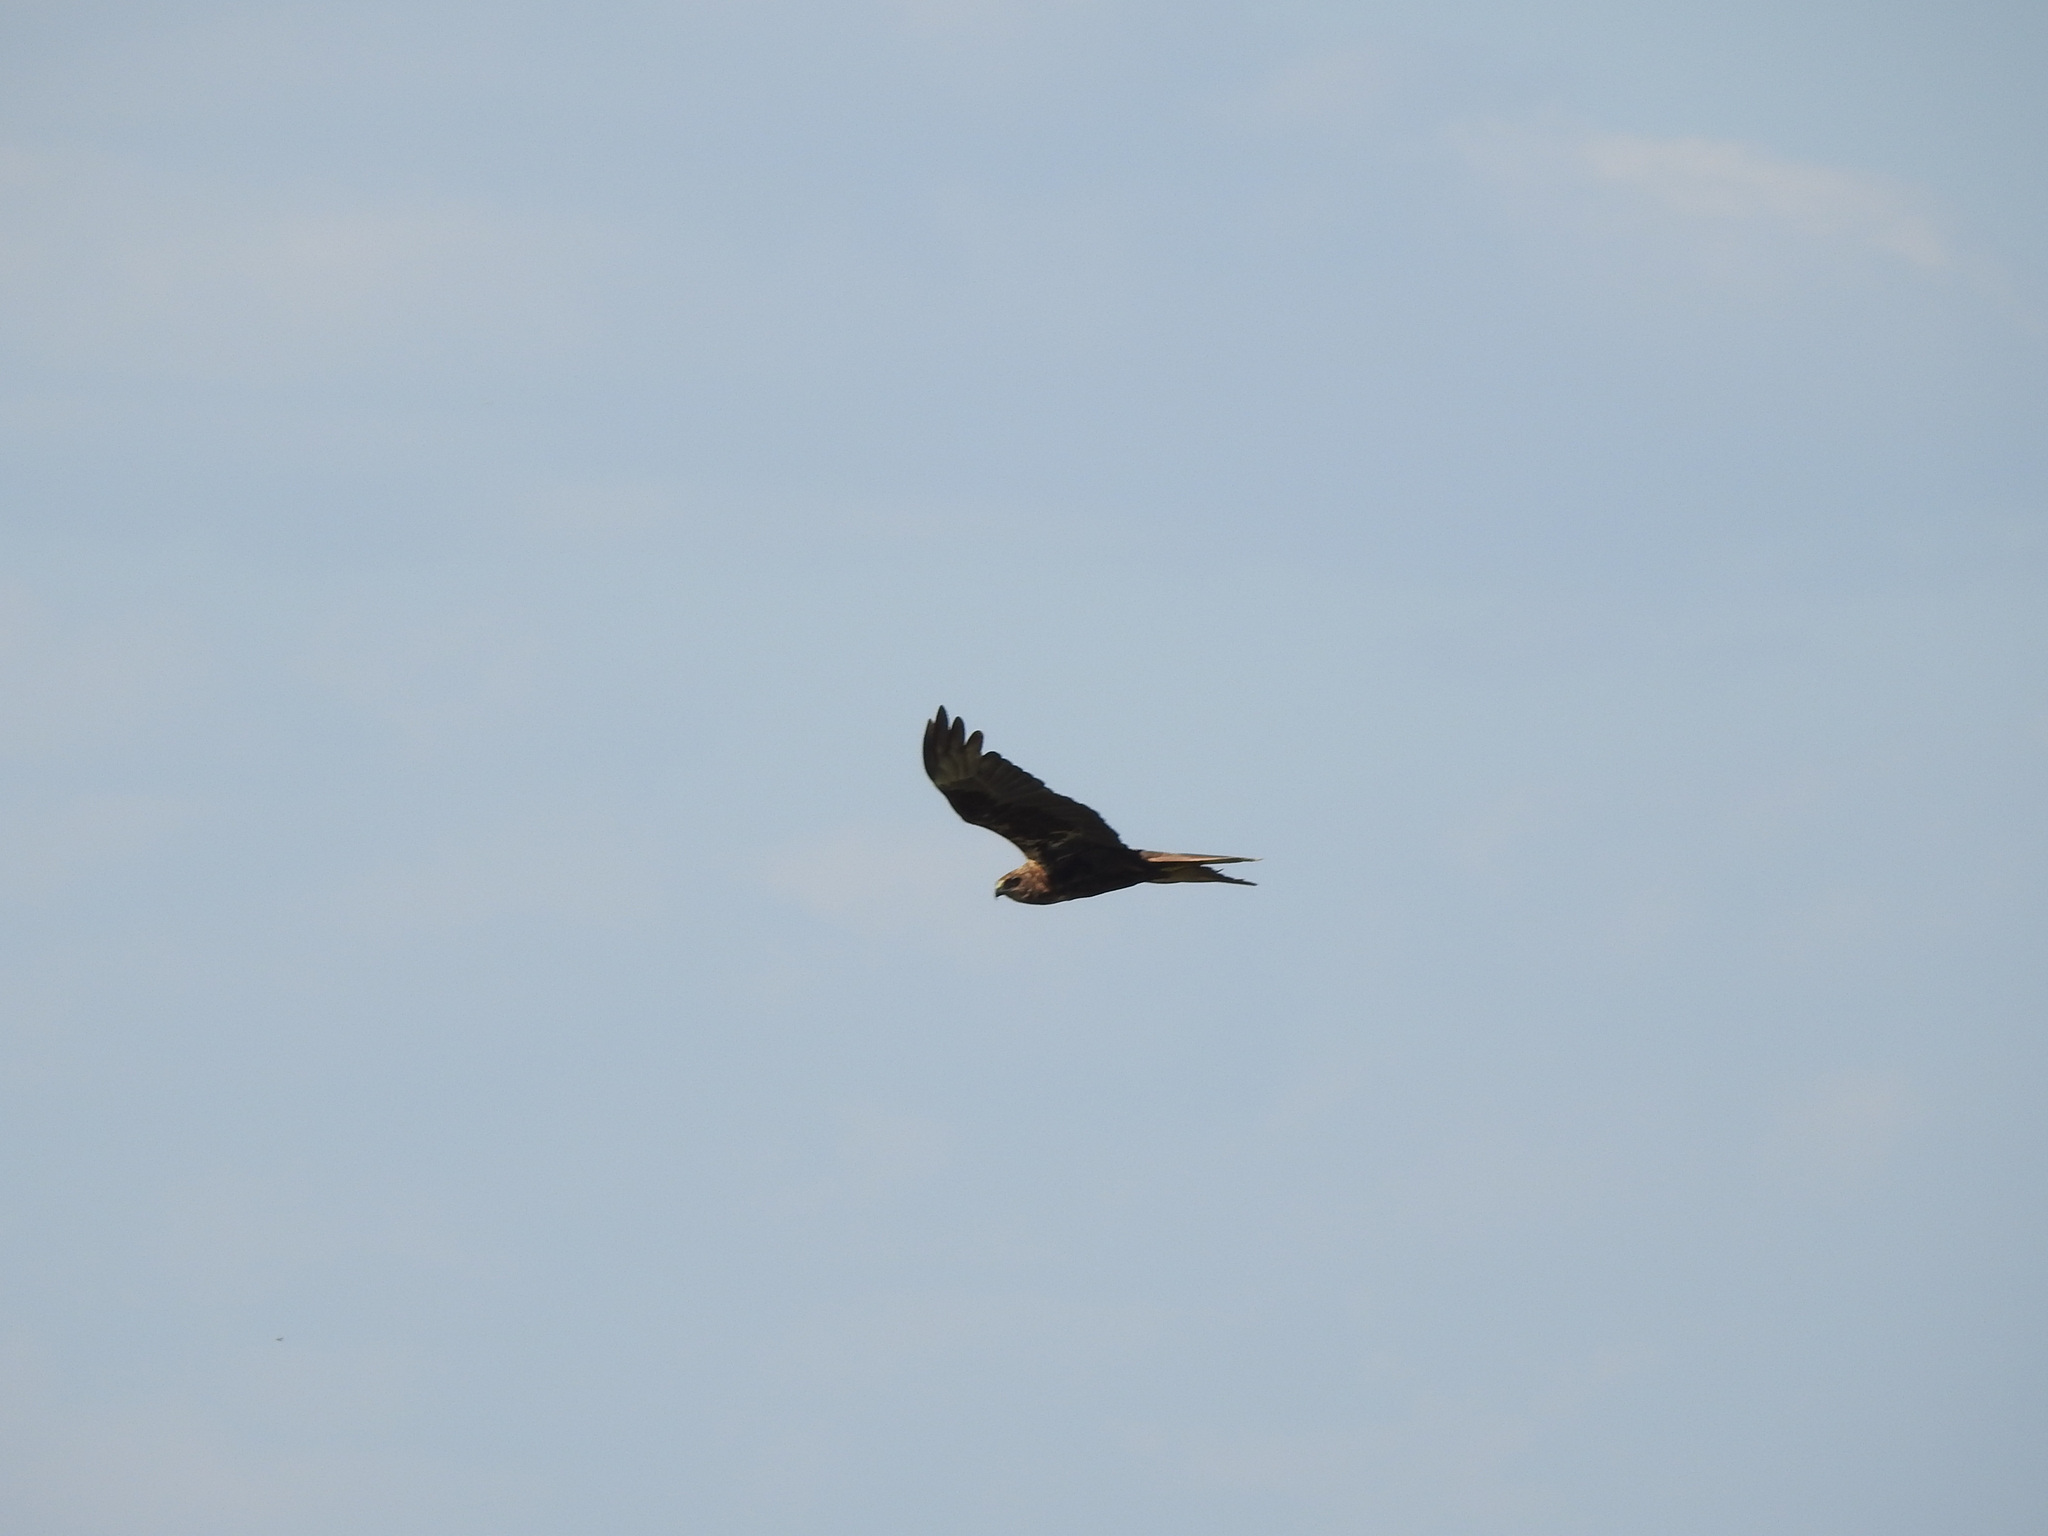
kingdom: Animalia
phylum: Chordata
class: Aves
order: Accipitriformes
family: Accipitridae
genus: Circus
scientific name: Circus aeruginosus
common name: Western marsh harrier
